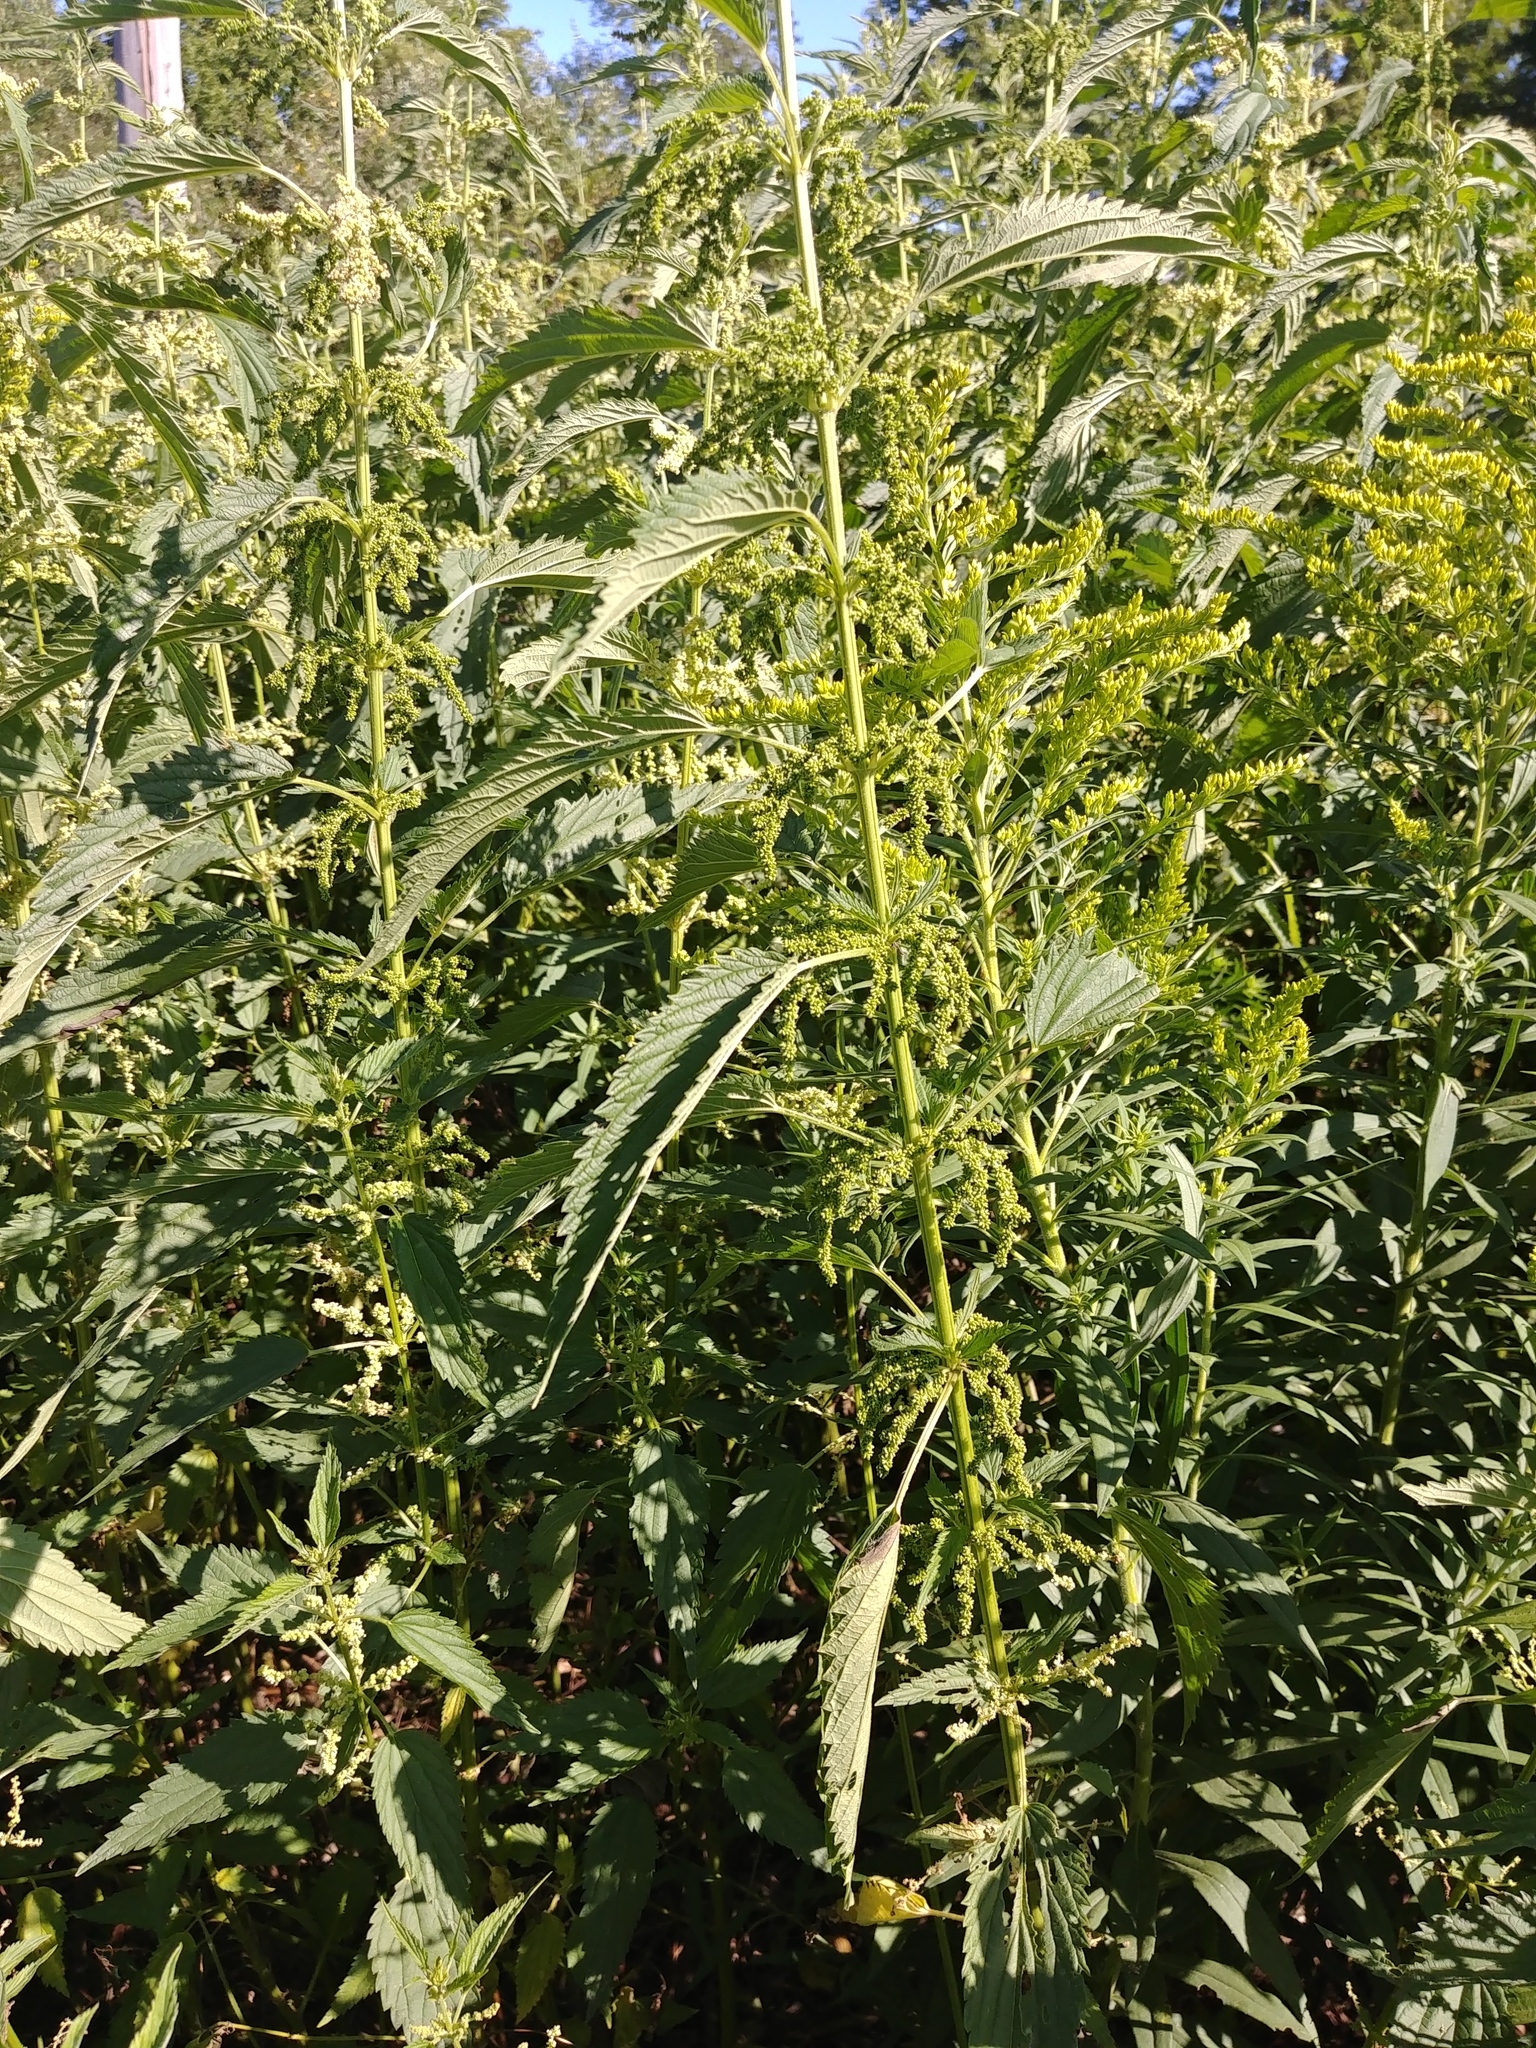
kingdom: Plantae
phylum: Tracheophyta
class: Magnoliopsida
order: Rosales
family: Urticaceae
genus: Urtica
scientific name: Urtica dioica
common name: Common nettle
